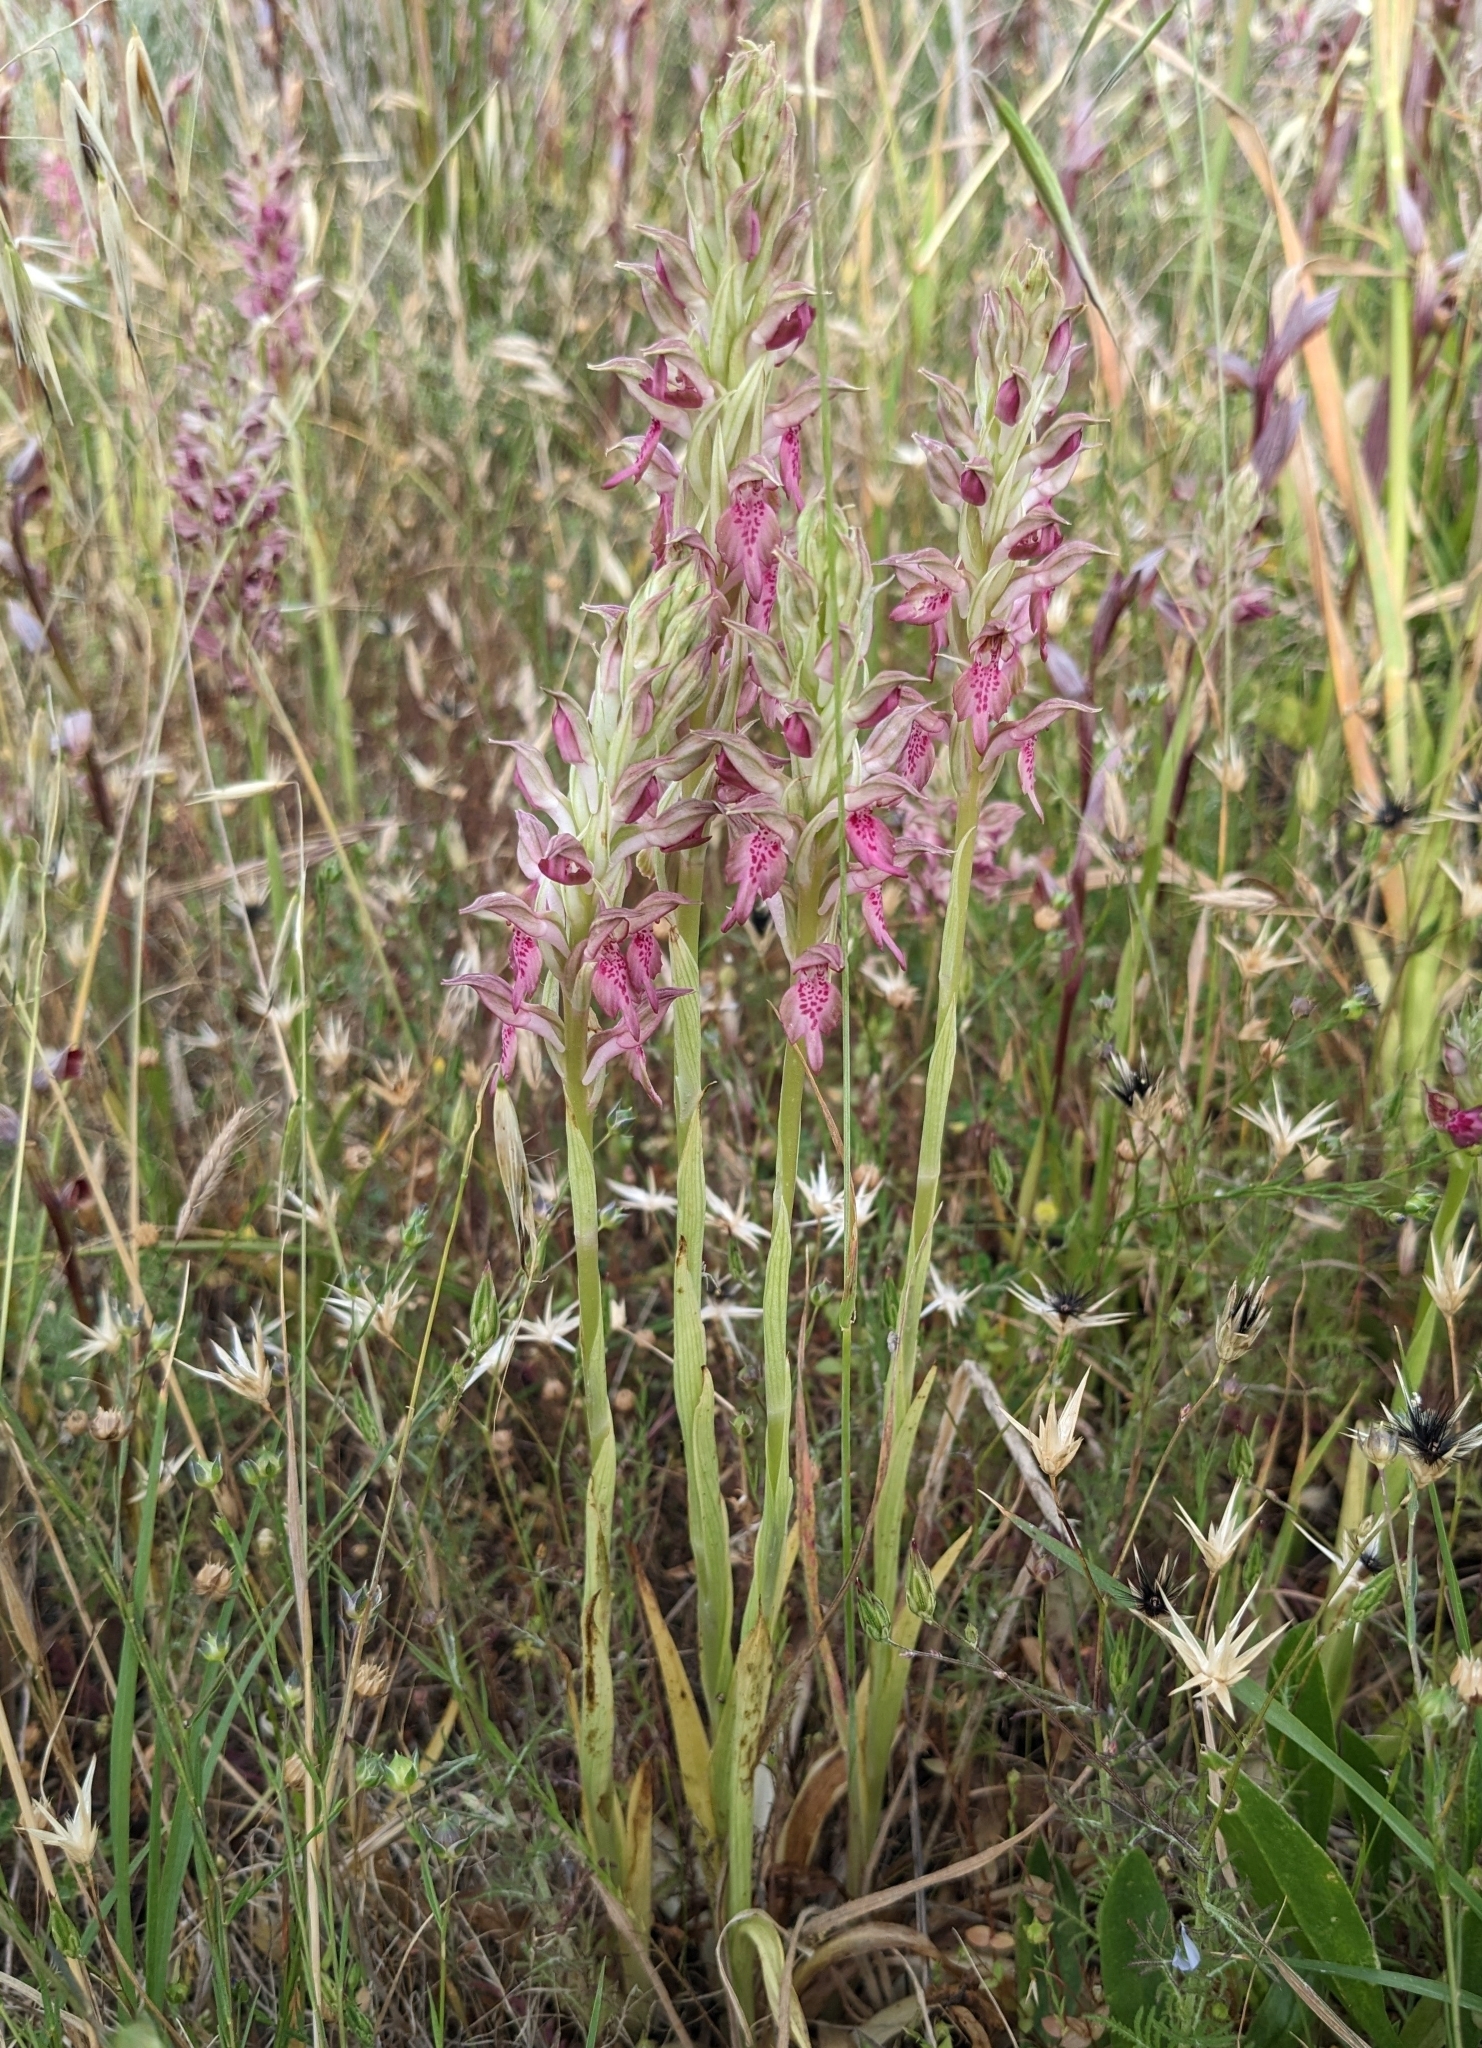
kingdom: Plantae
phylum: Tracheophyta
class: Liliopsida
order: Asparagales
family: Orchidaceae
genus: Anacamptis
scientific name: Anacamptis coriophora
